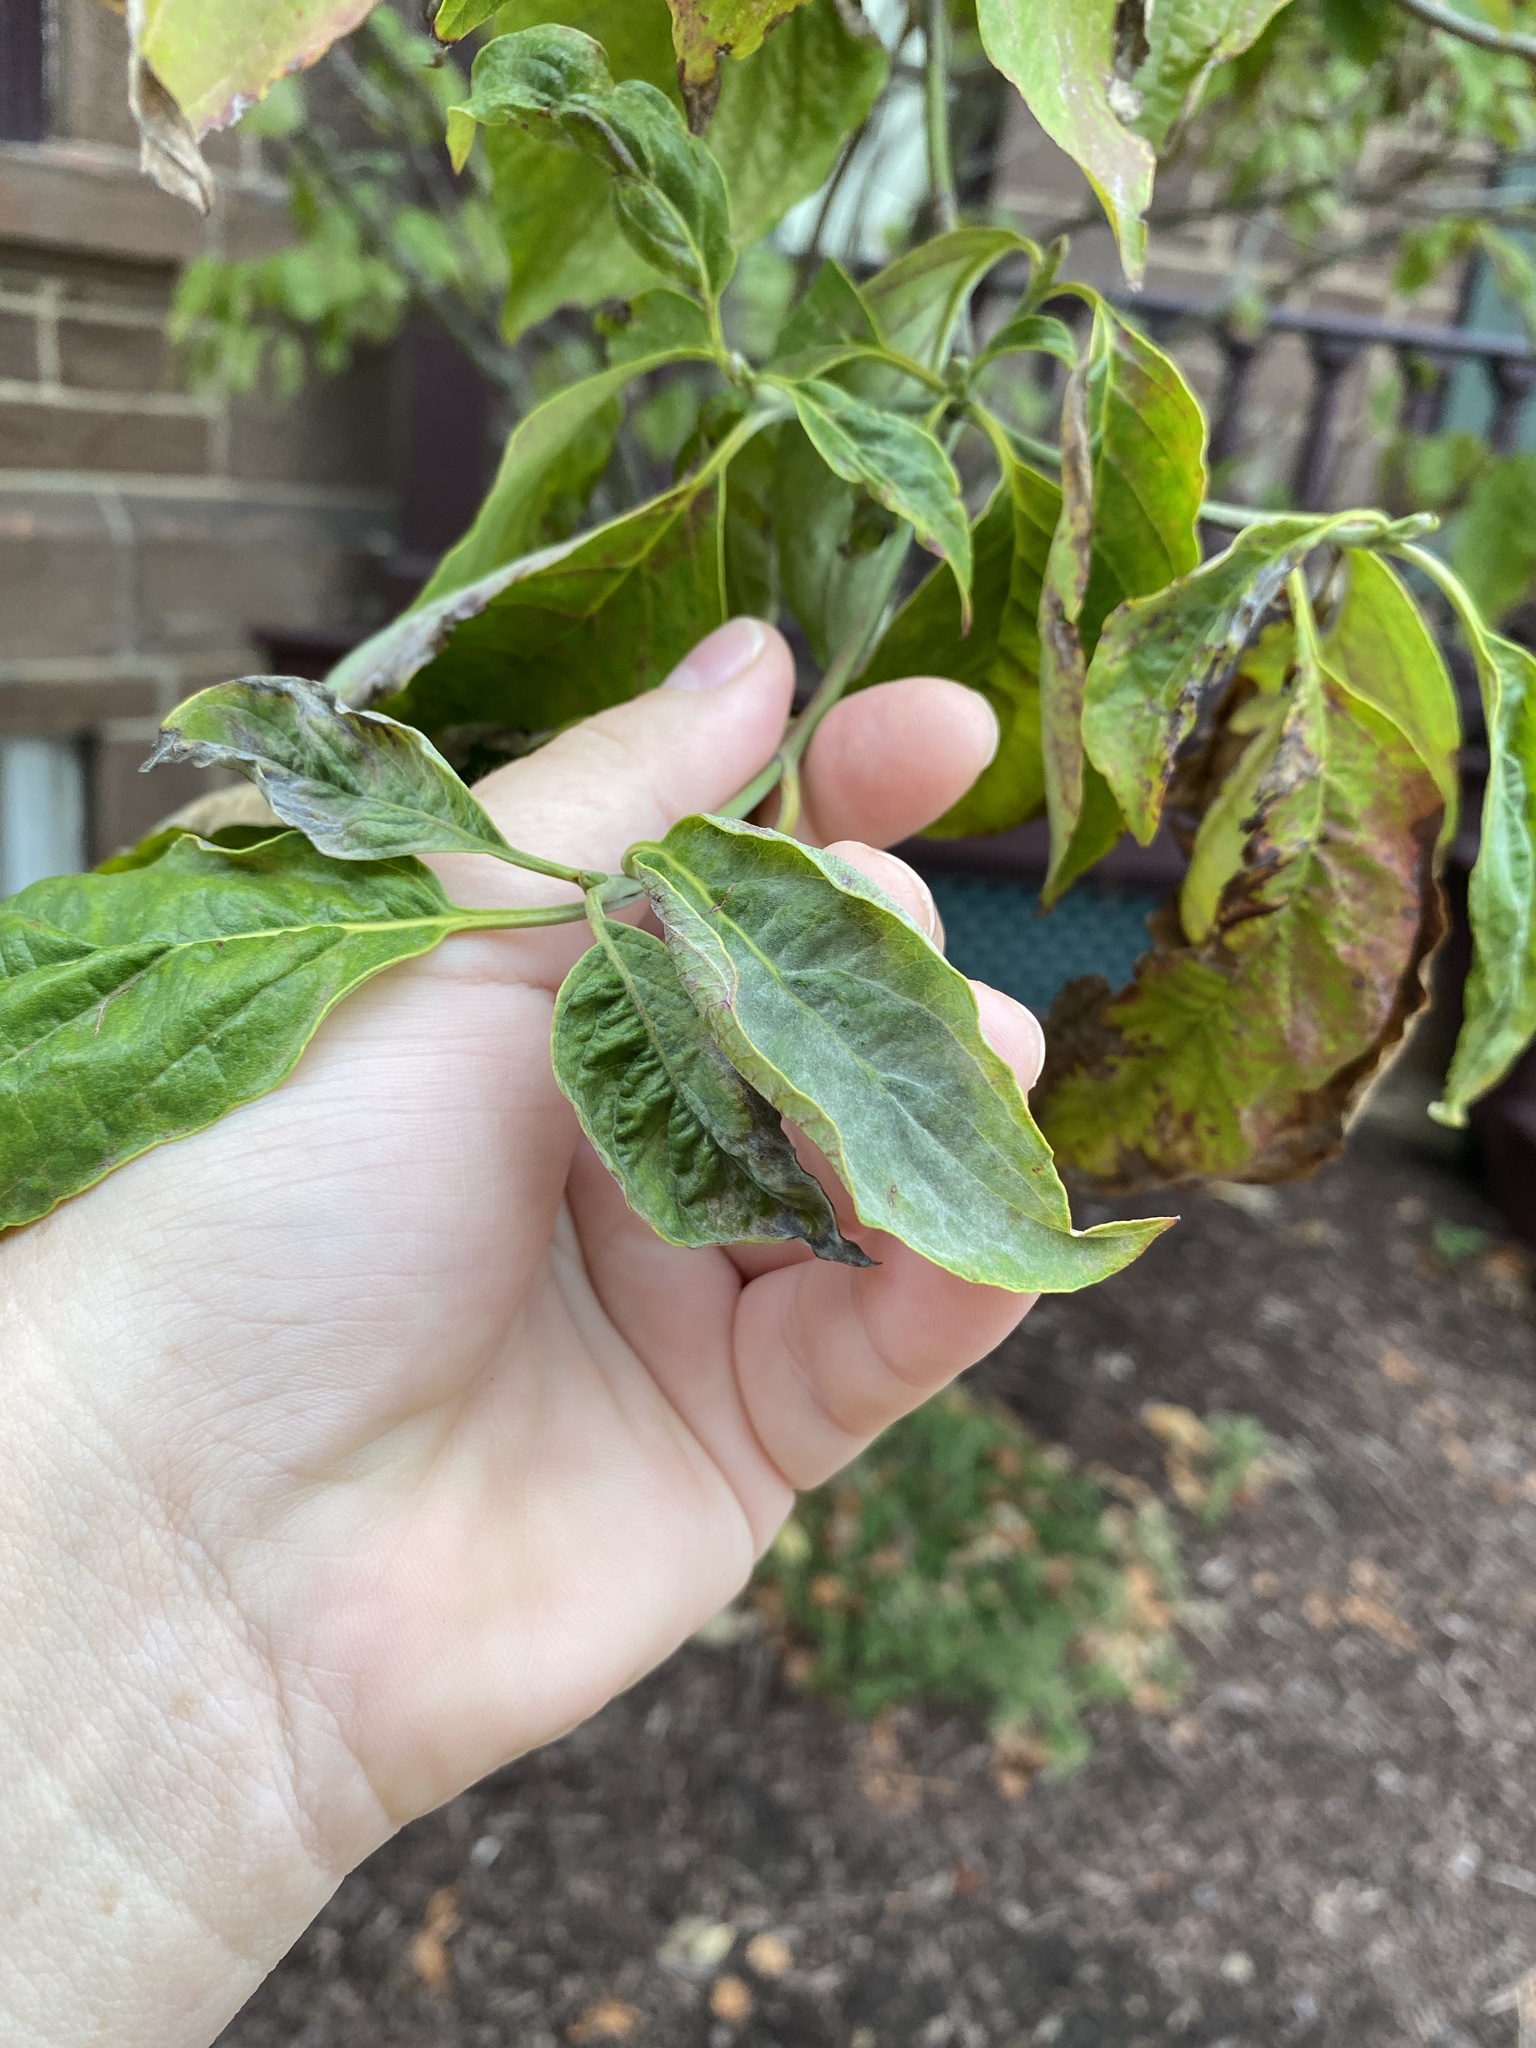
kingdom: Fungi
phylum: Ascomycota
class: Leotiomycetes
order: Helotiales
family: Erysiphaceae
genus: Erysiphe
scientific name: Erysiphe
